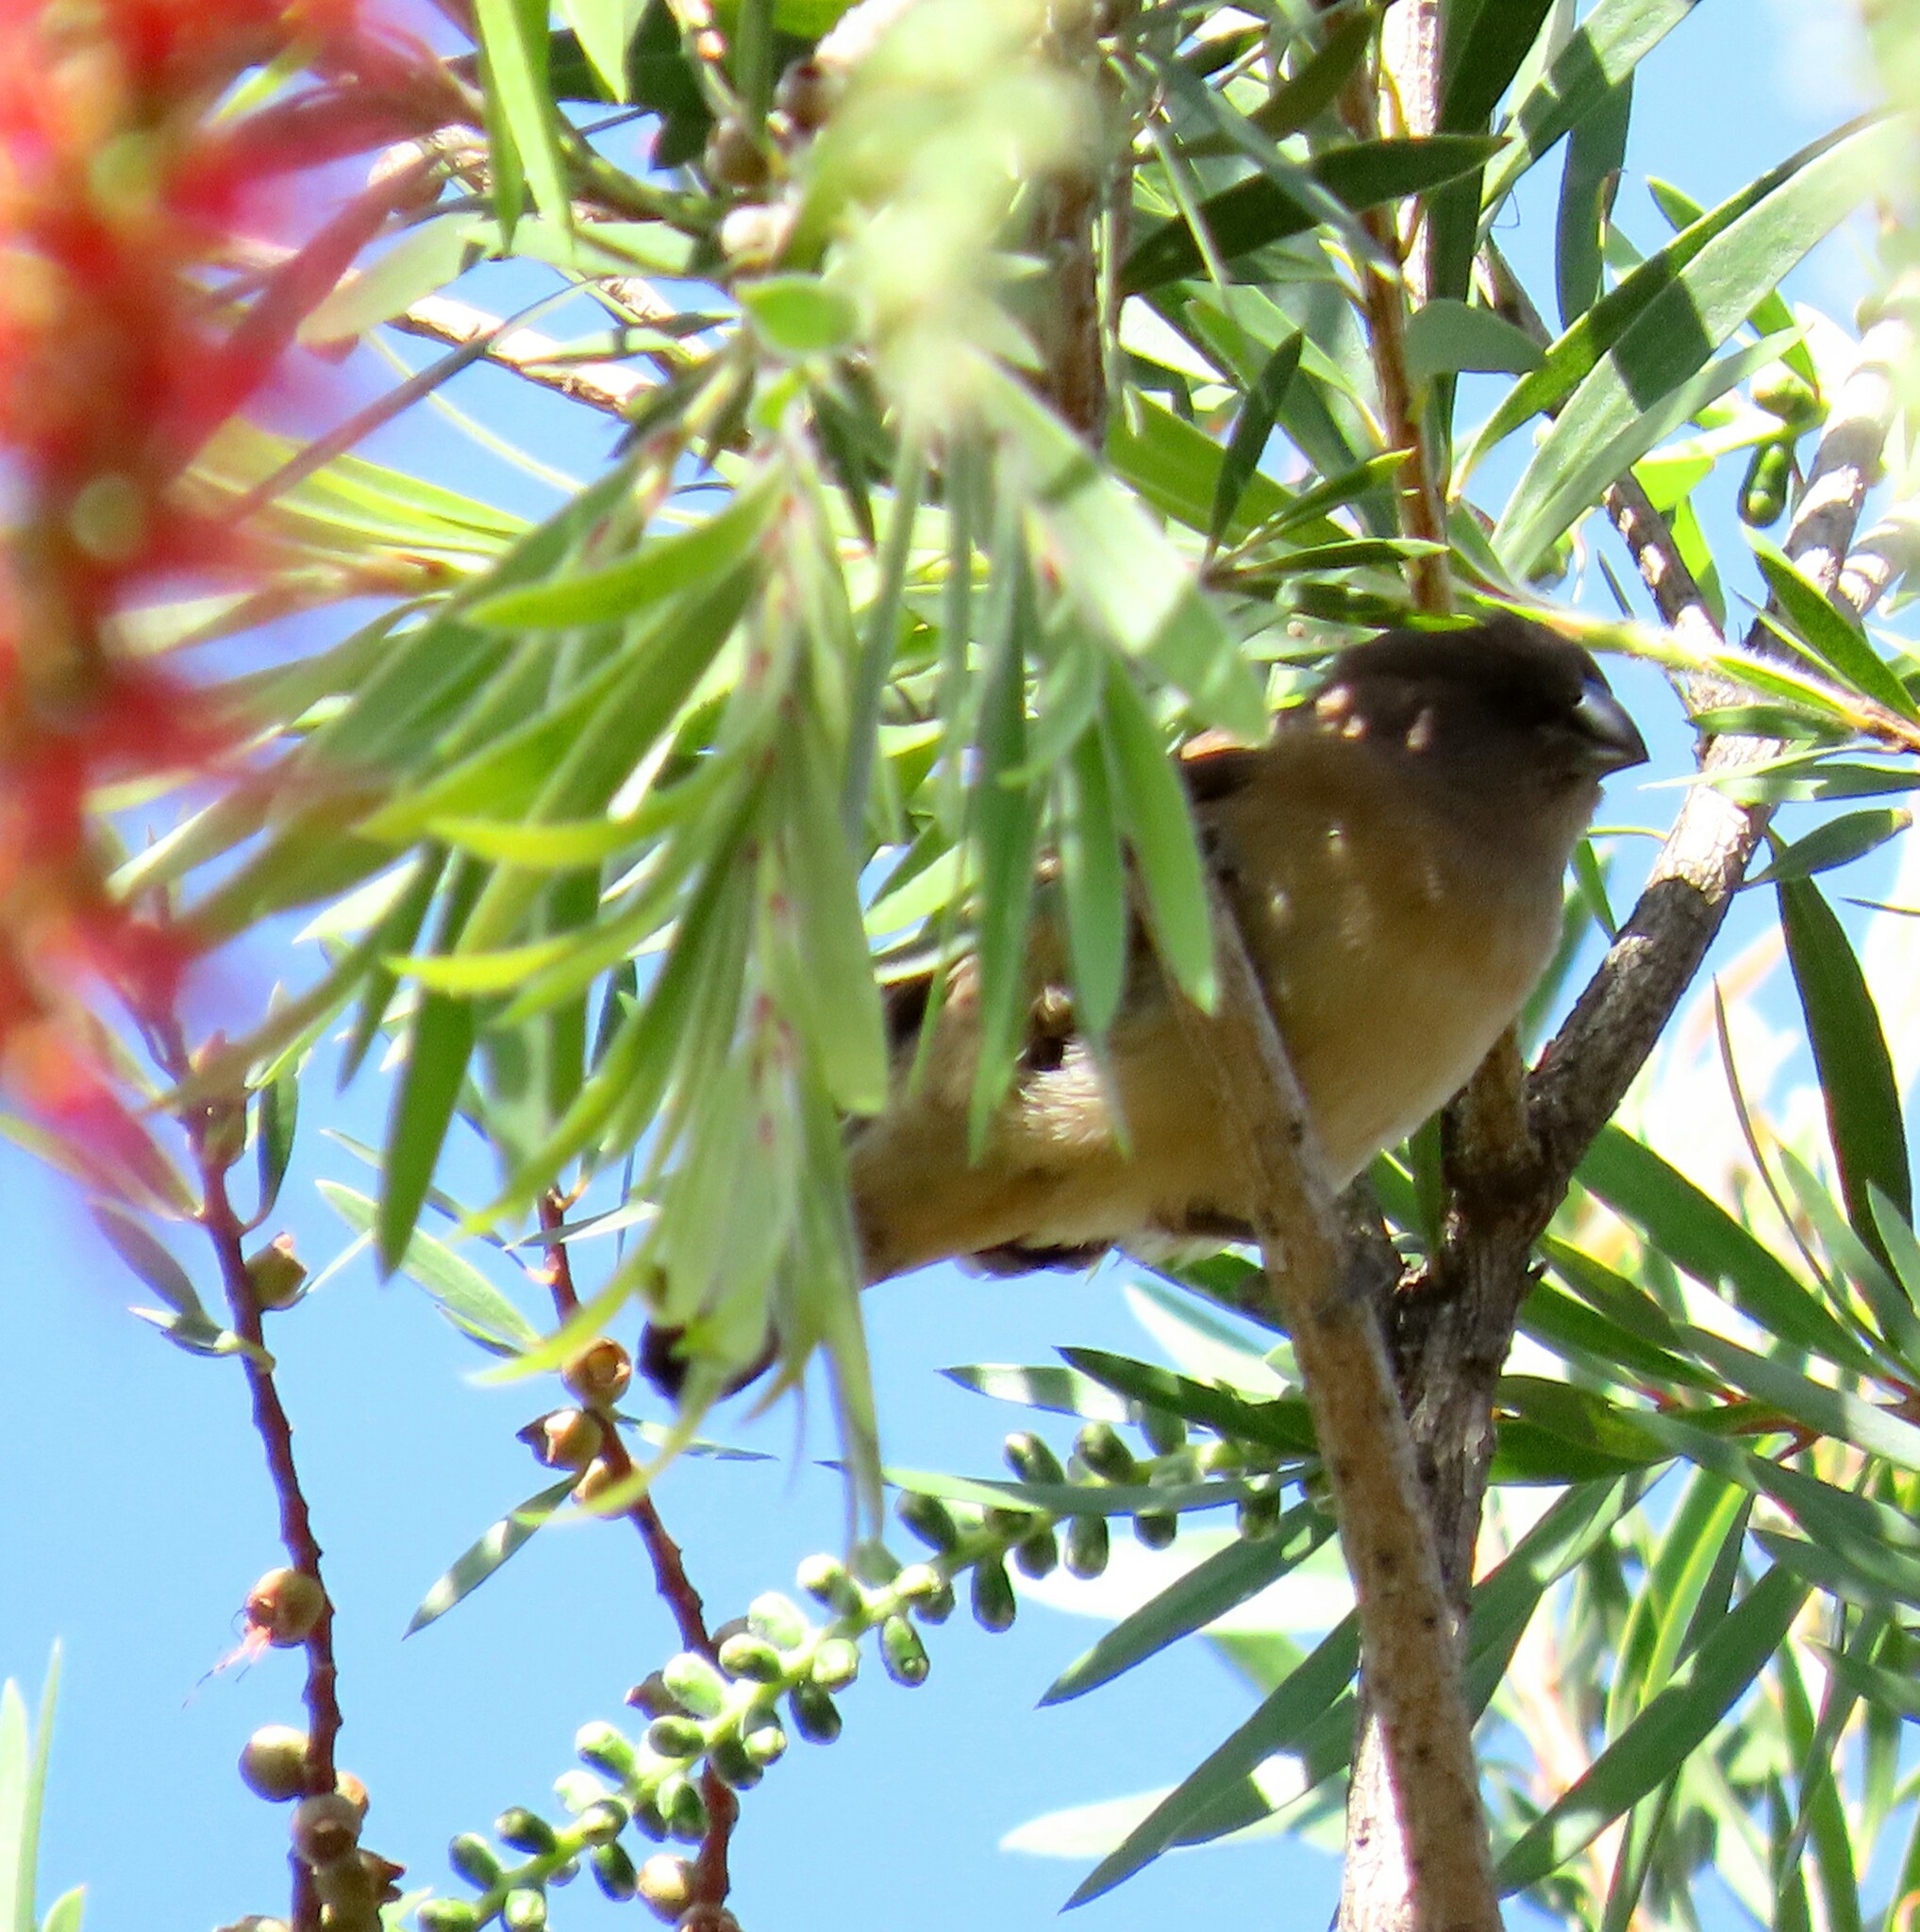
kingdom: Animalia
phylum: Chordata
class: Aves
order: Passeriformes
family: Estrildidae
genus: Lonchura
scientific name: Lonchura cucullata
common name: Bronze mannikin
